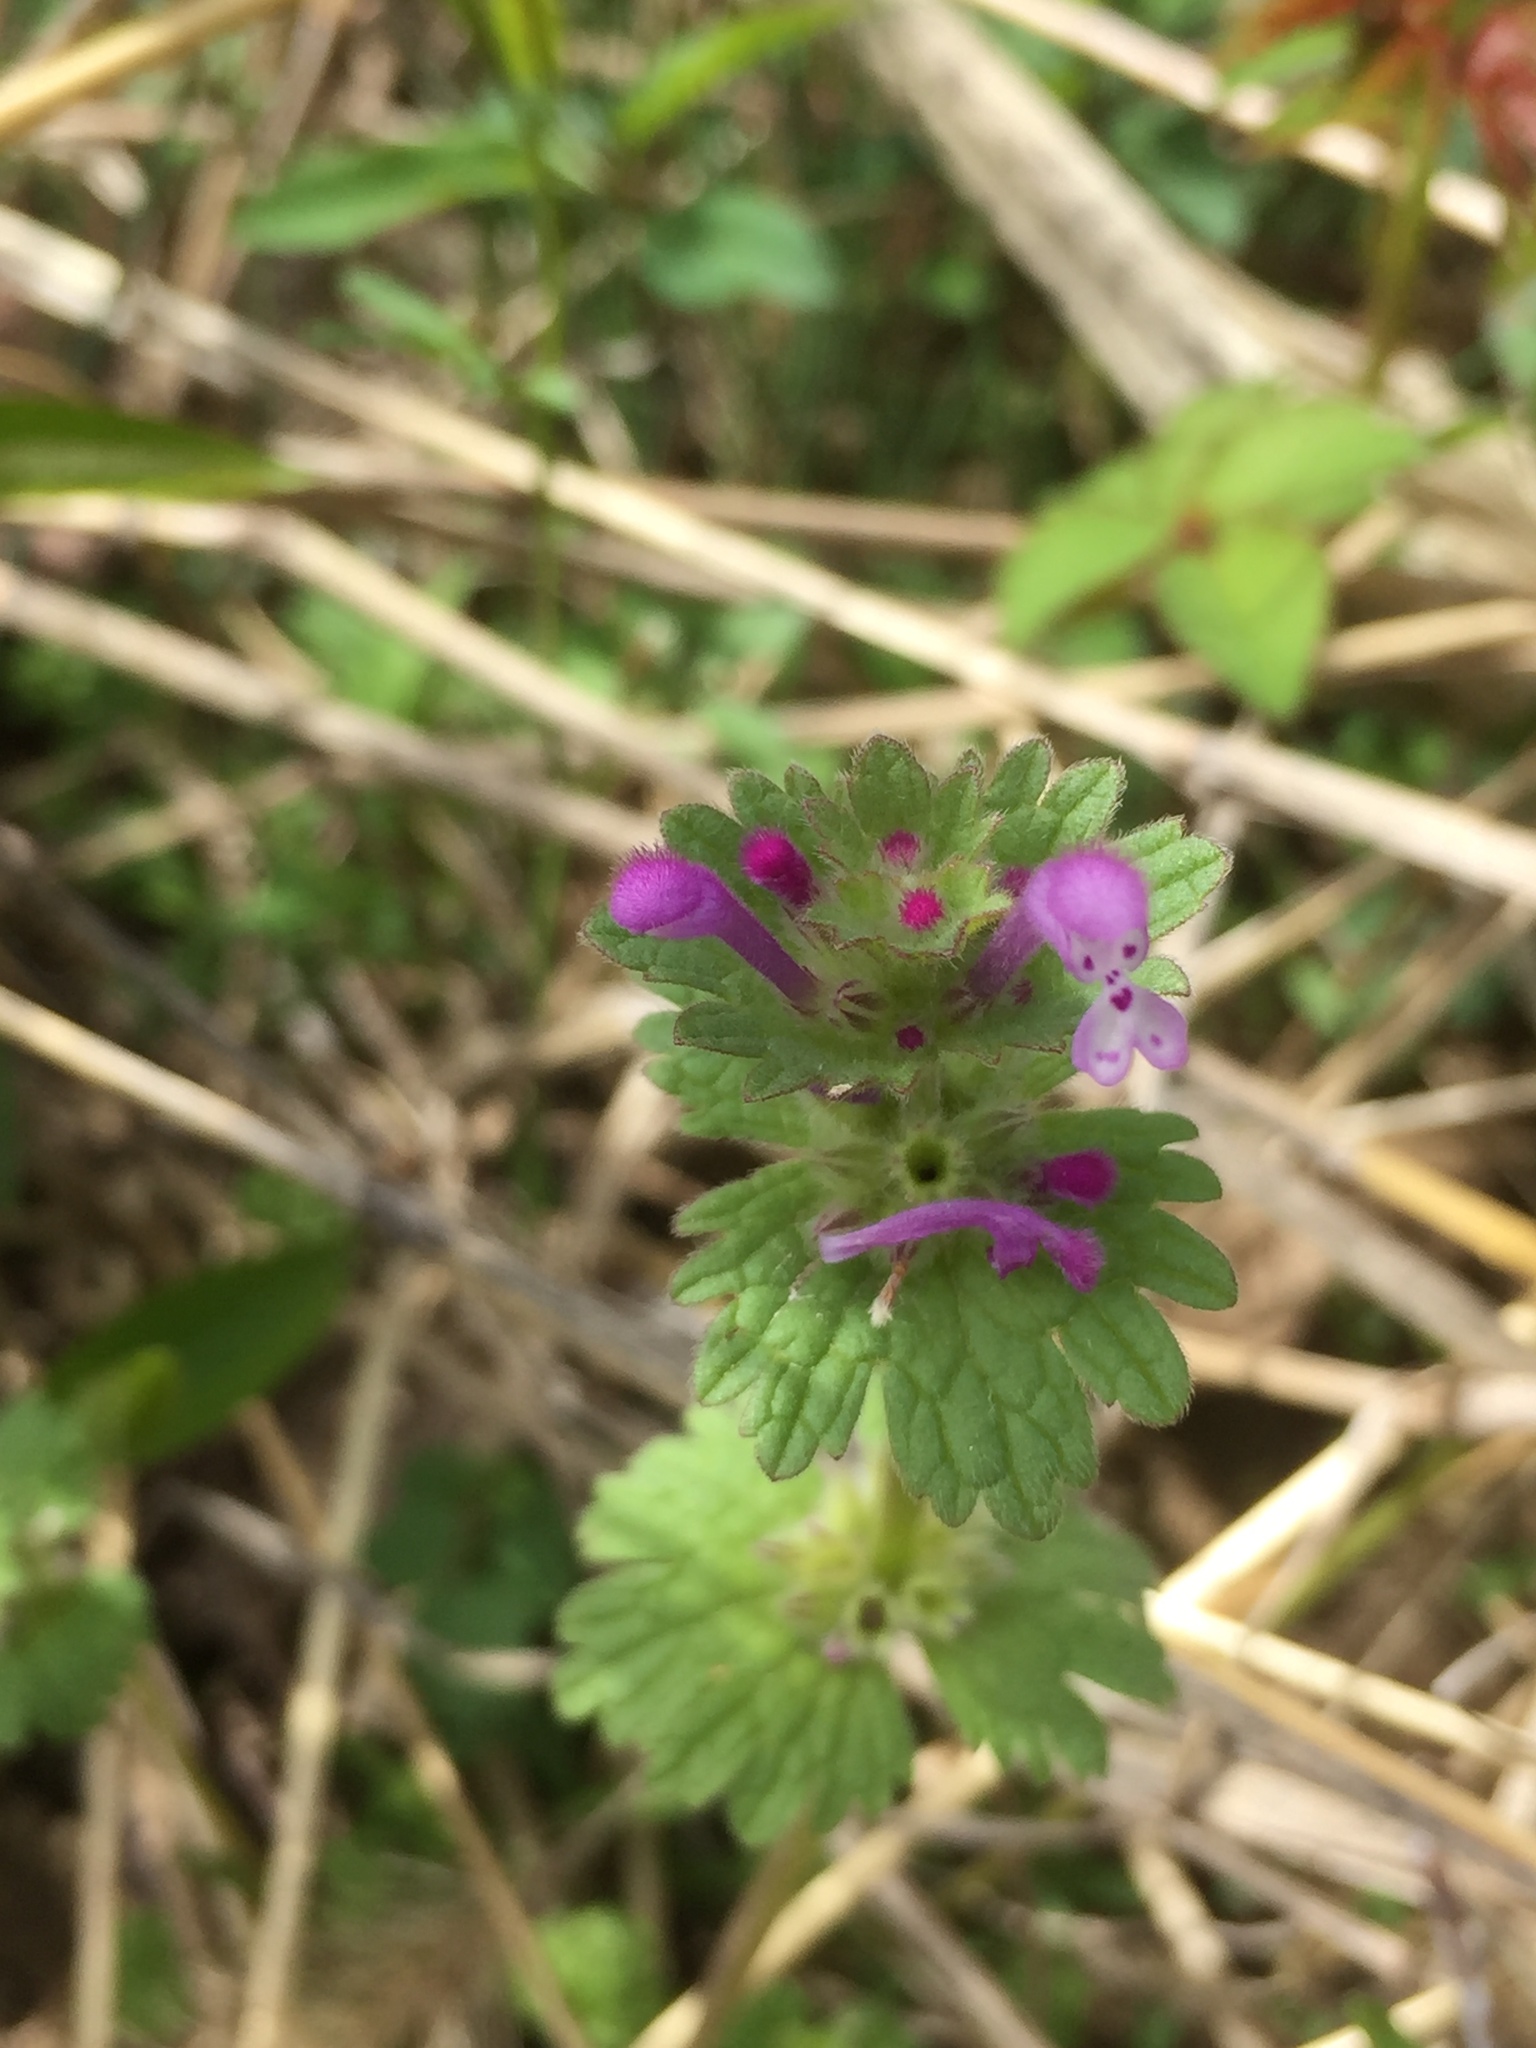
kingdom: Plantae
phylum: Tracheophyta
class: Magnoliopsida
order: Lamiales
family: Lamiaceae
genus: Lamium
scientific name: Lamium amplexicaule
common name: Henbit dead-nettle
